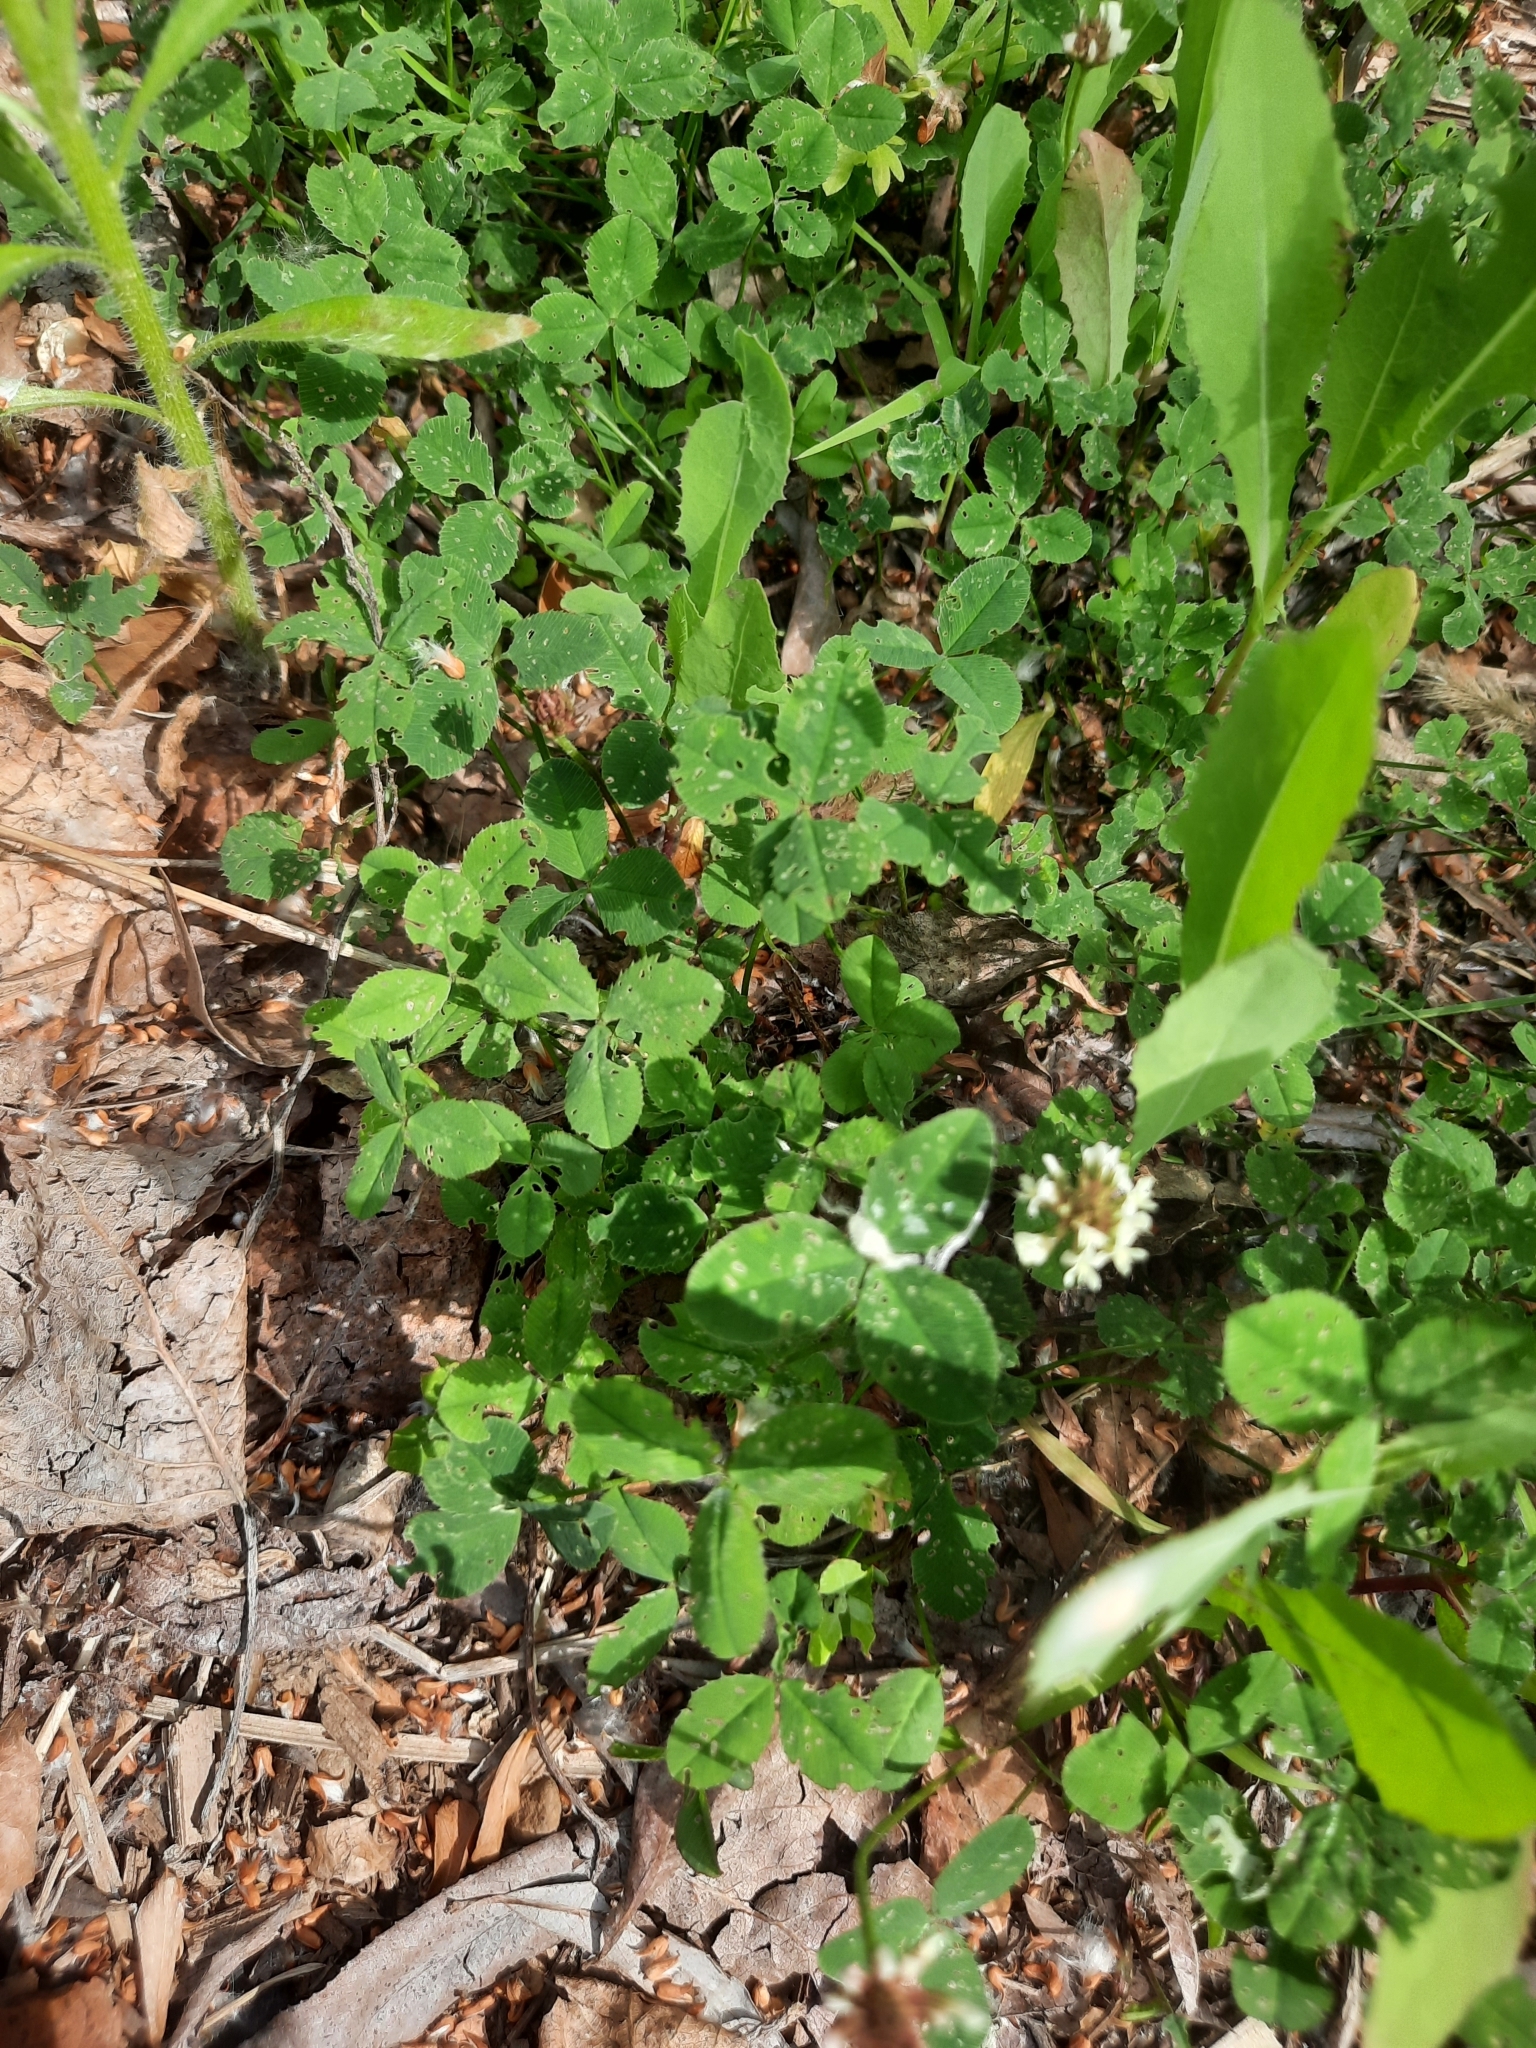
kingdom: Plantae
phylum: Tracheophyta
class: Magnoliopsida
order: Fabales
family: Fabaceae
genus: Trifolium
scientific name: Trifolium repens
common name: White clover
